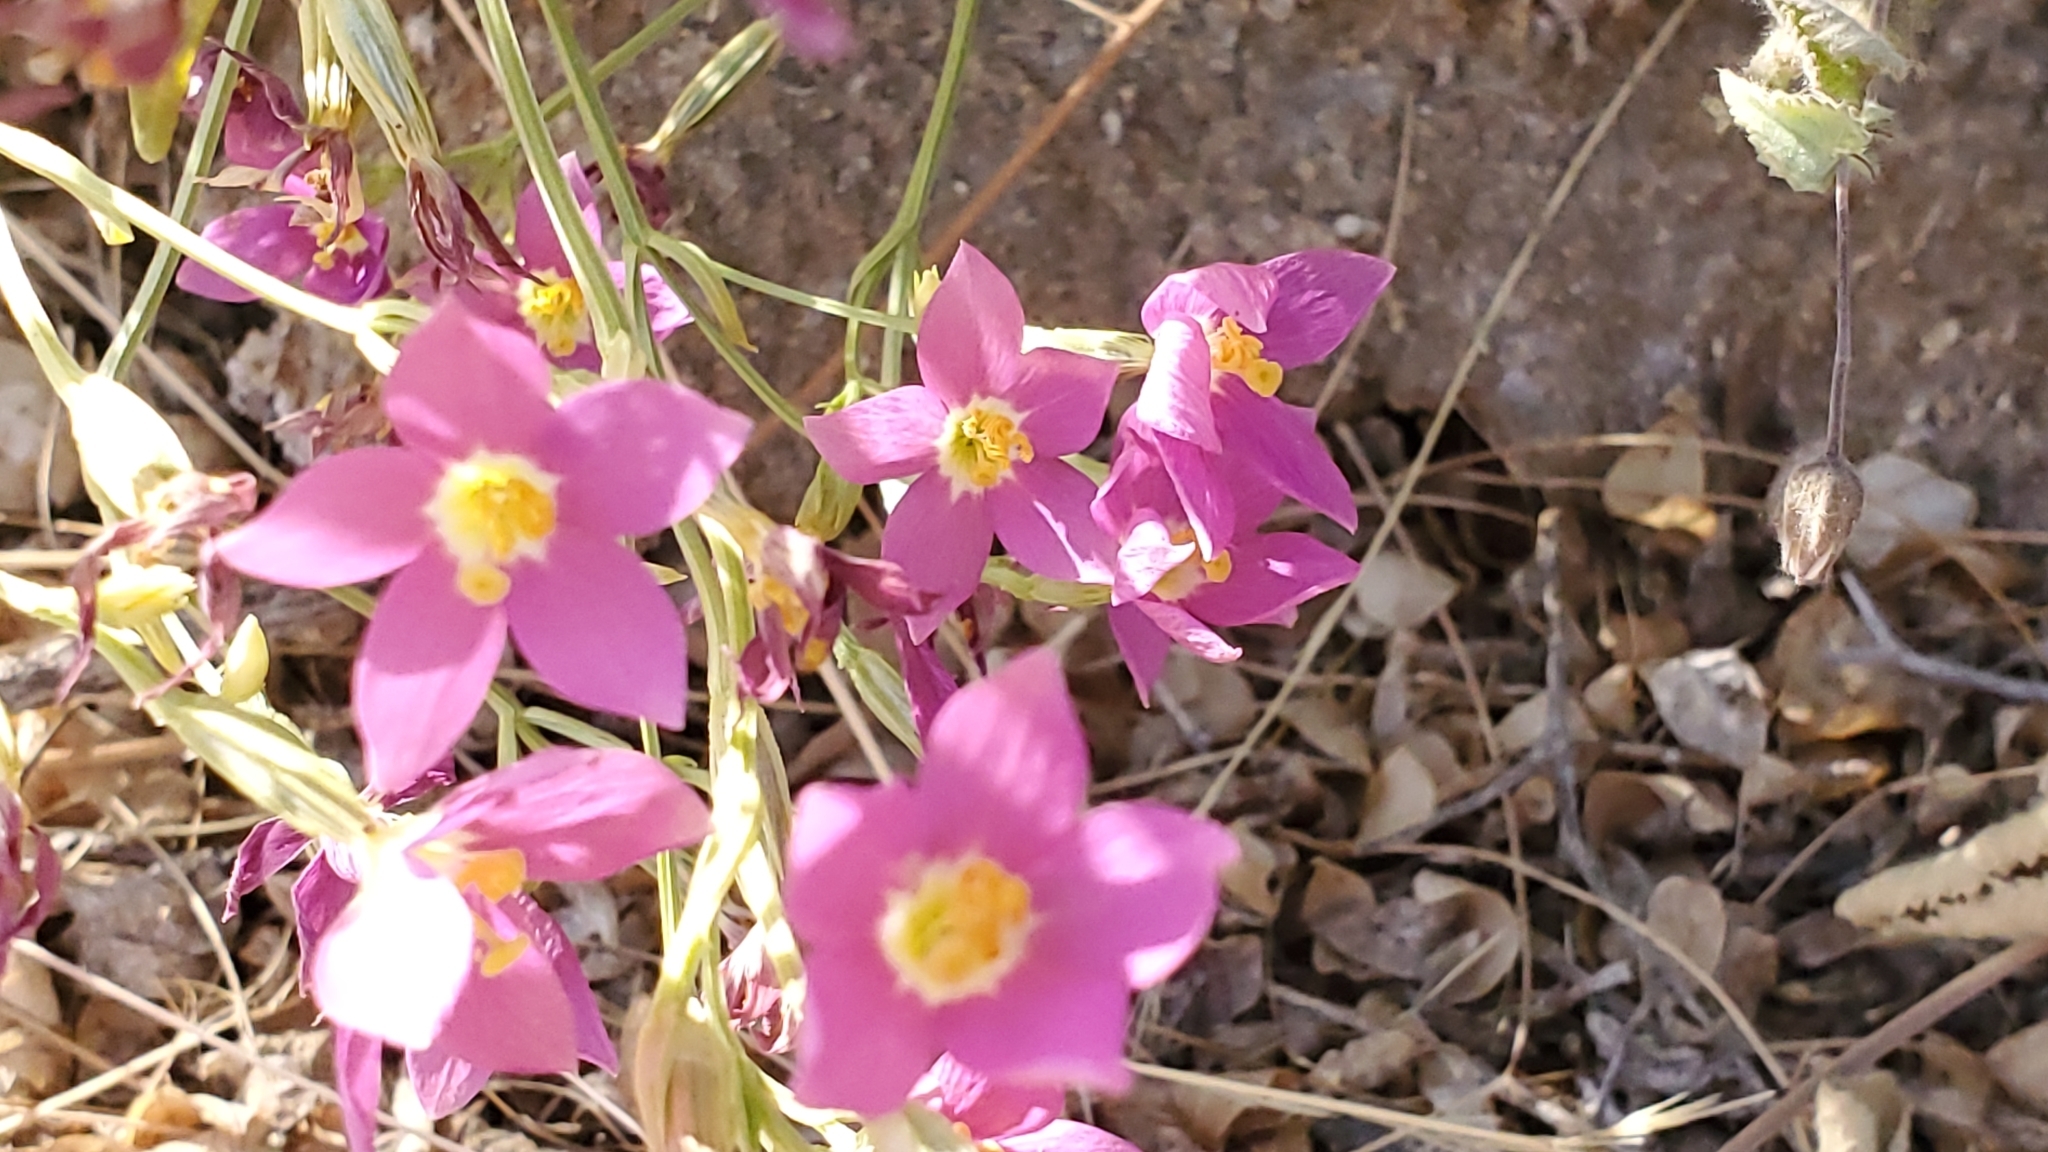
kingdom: Plantae
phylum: Tracheophyta
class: Magnoliopsida
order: Gentianales
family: Gentianaceae
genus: Zeltnera
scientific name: Zeltnera arizonica
